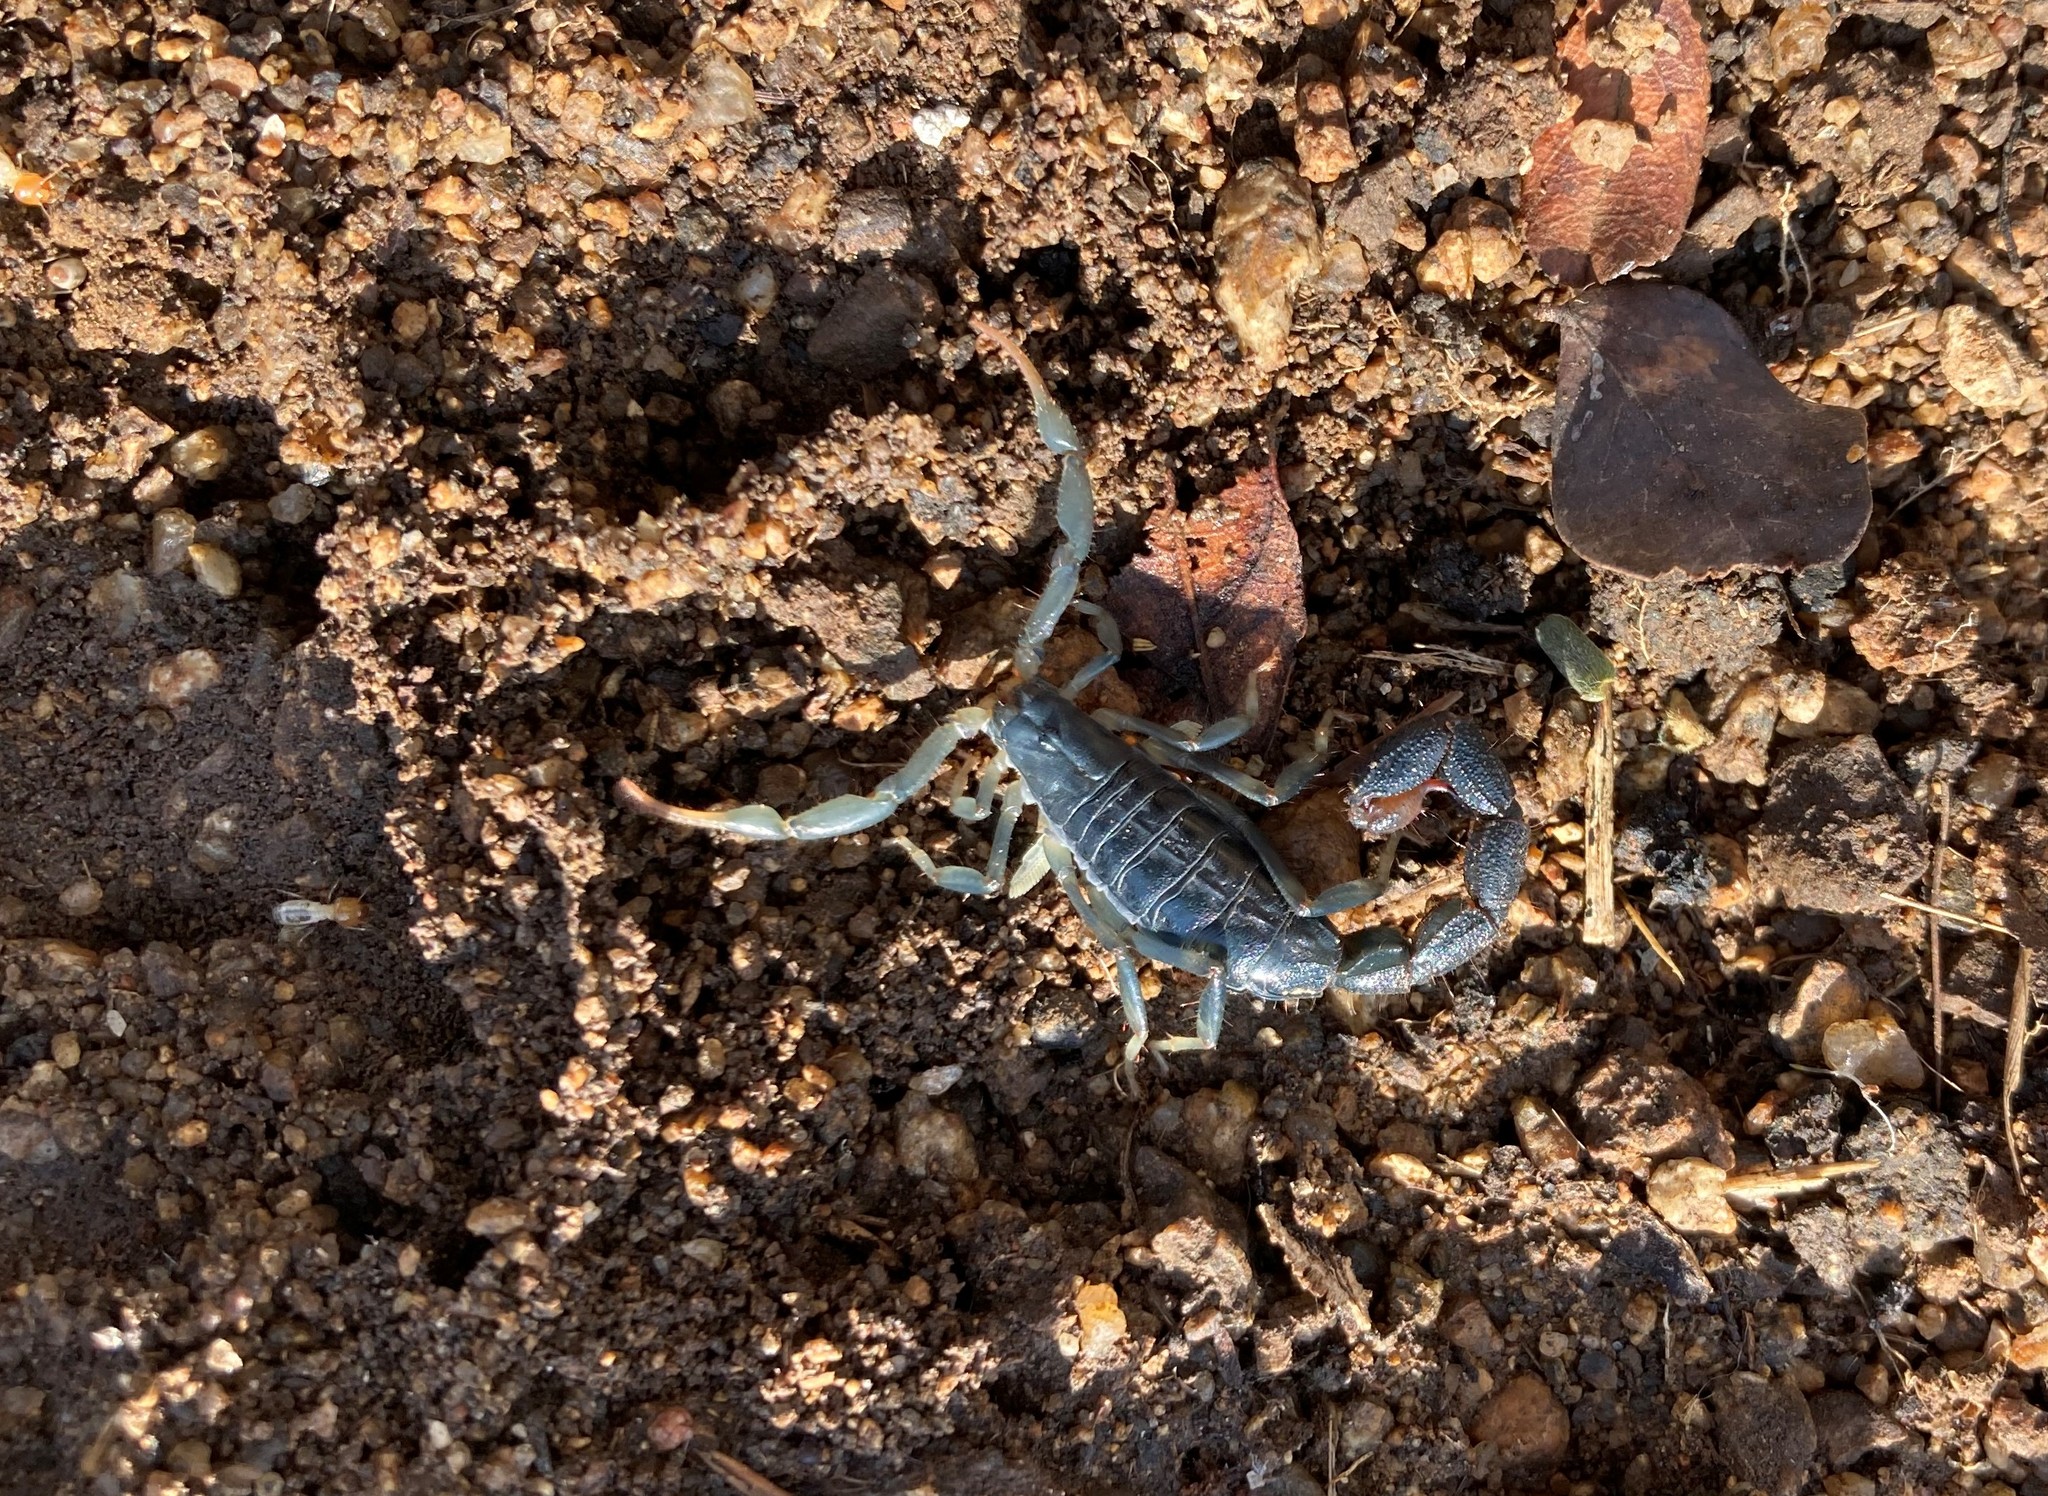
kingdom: Animalia
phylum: Arthropoda
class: Arachnida
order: Scorpiones
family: Buthidae
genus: Uroplectes
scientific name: Uroplectes olivaceus
